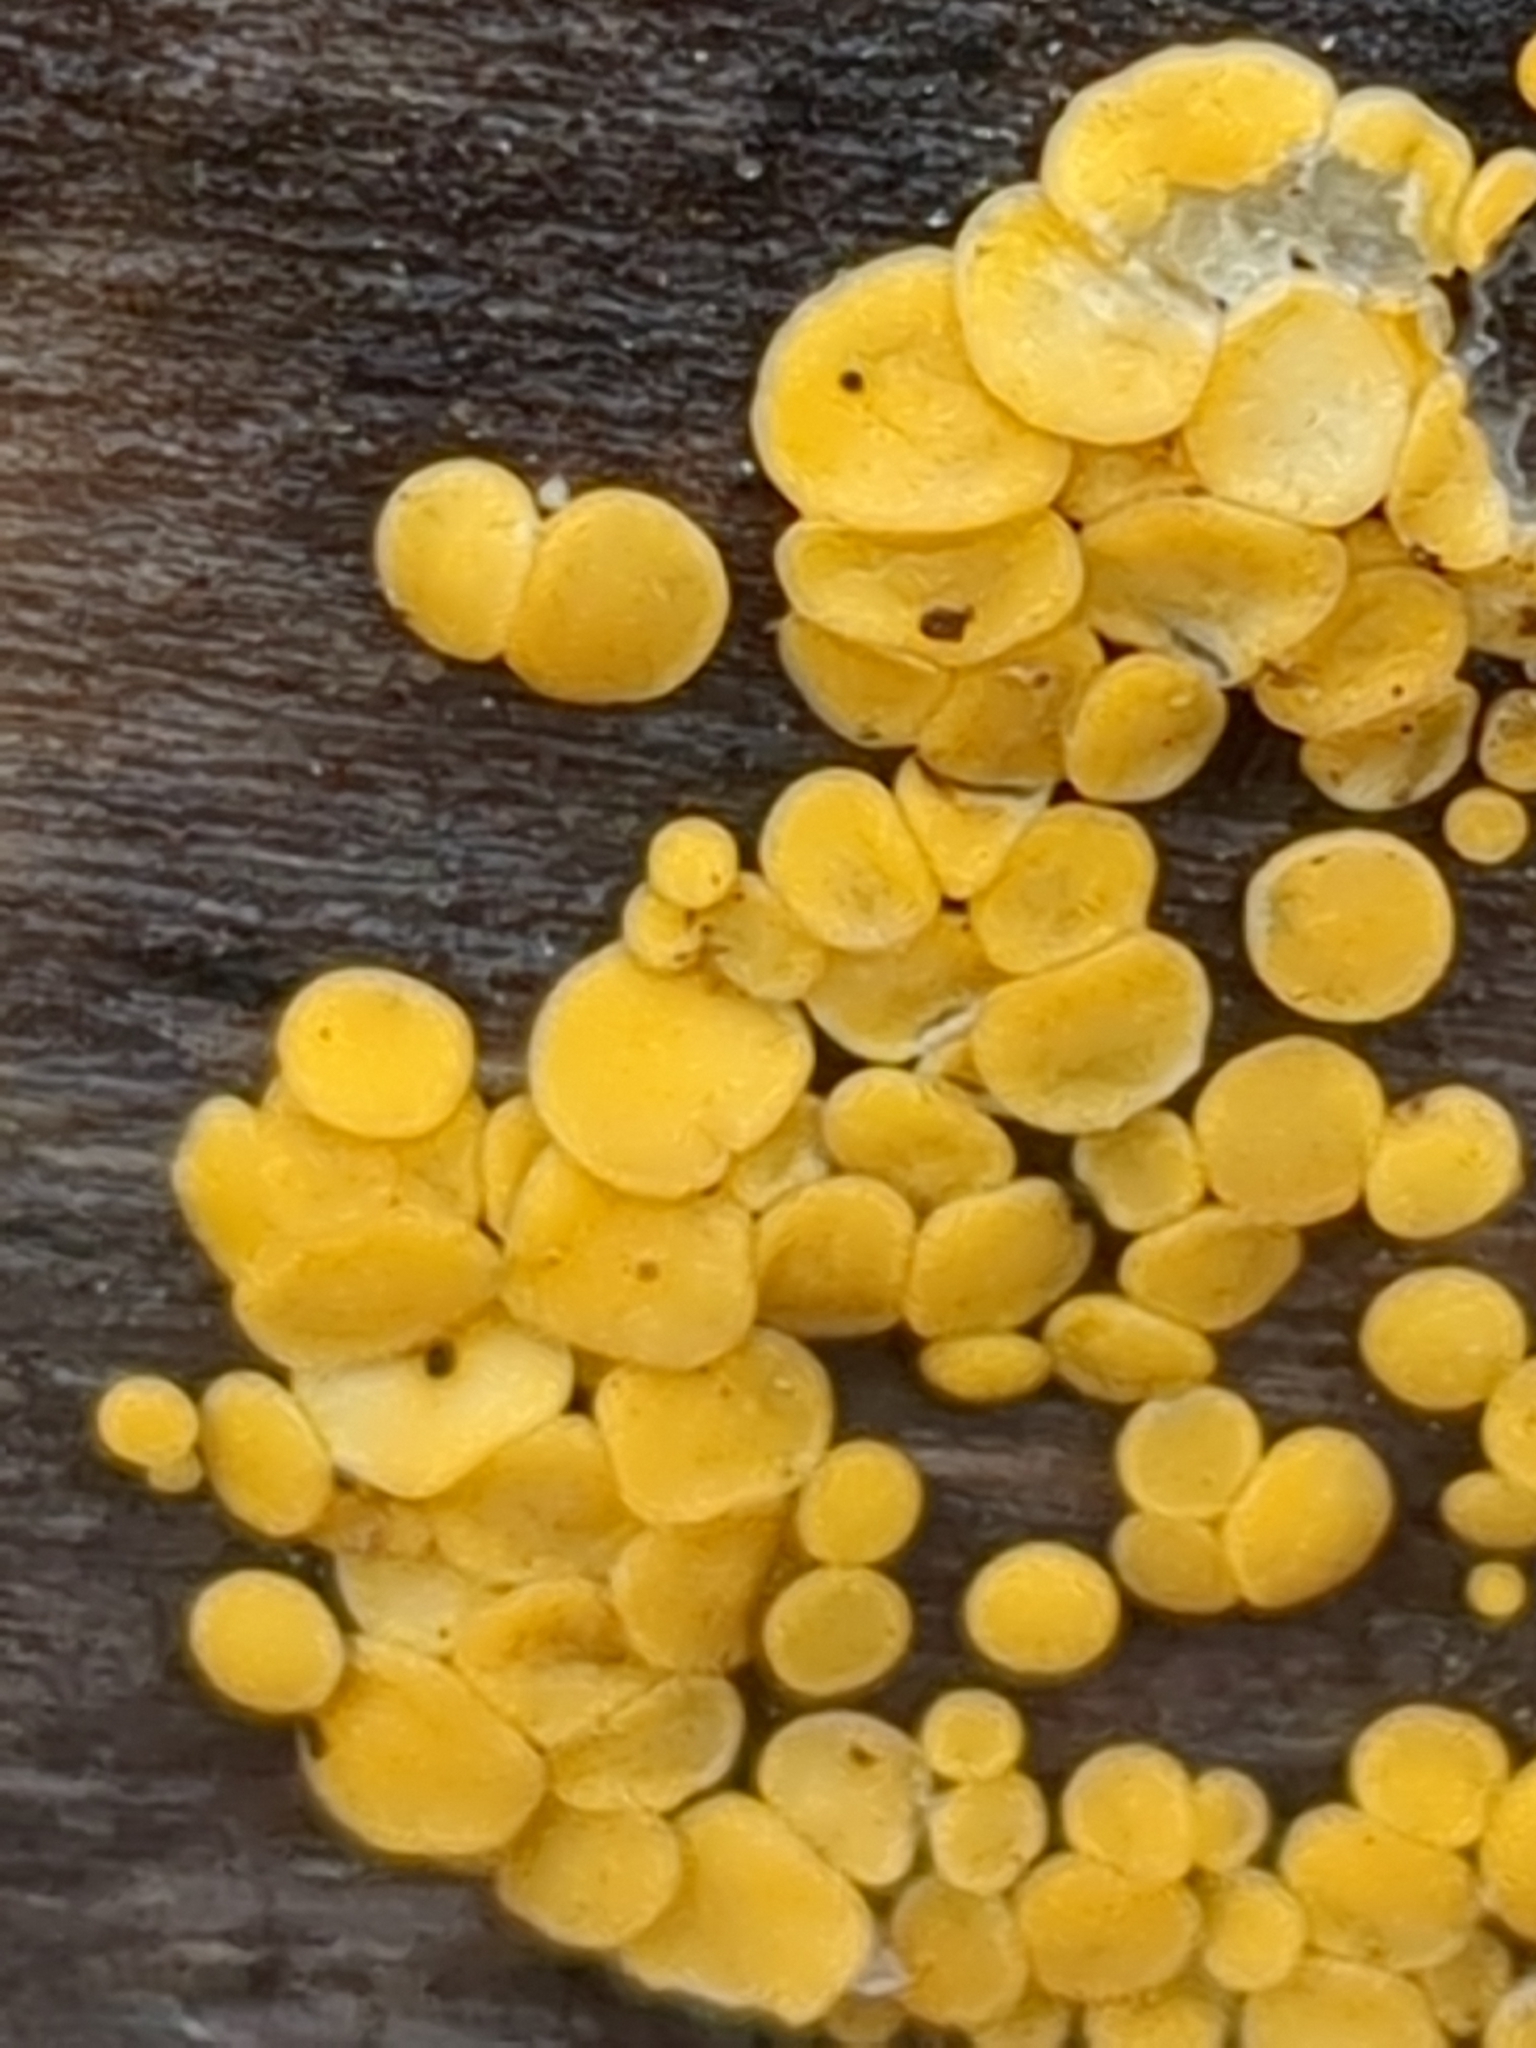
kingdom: Fungi
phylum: Ascomycota
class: Leotiomycetes
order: Helotiales
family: Pezizellaceae
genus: Calycina
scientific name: Calycina citrina
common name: Yellow fairy cups
